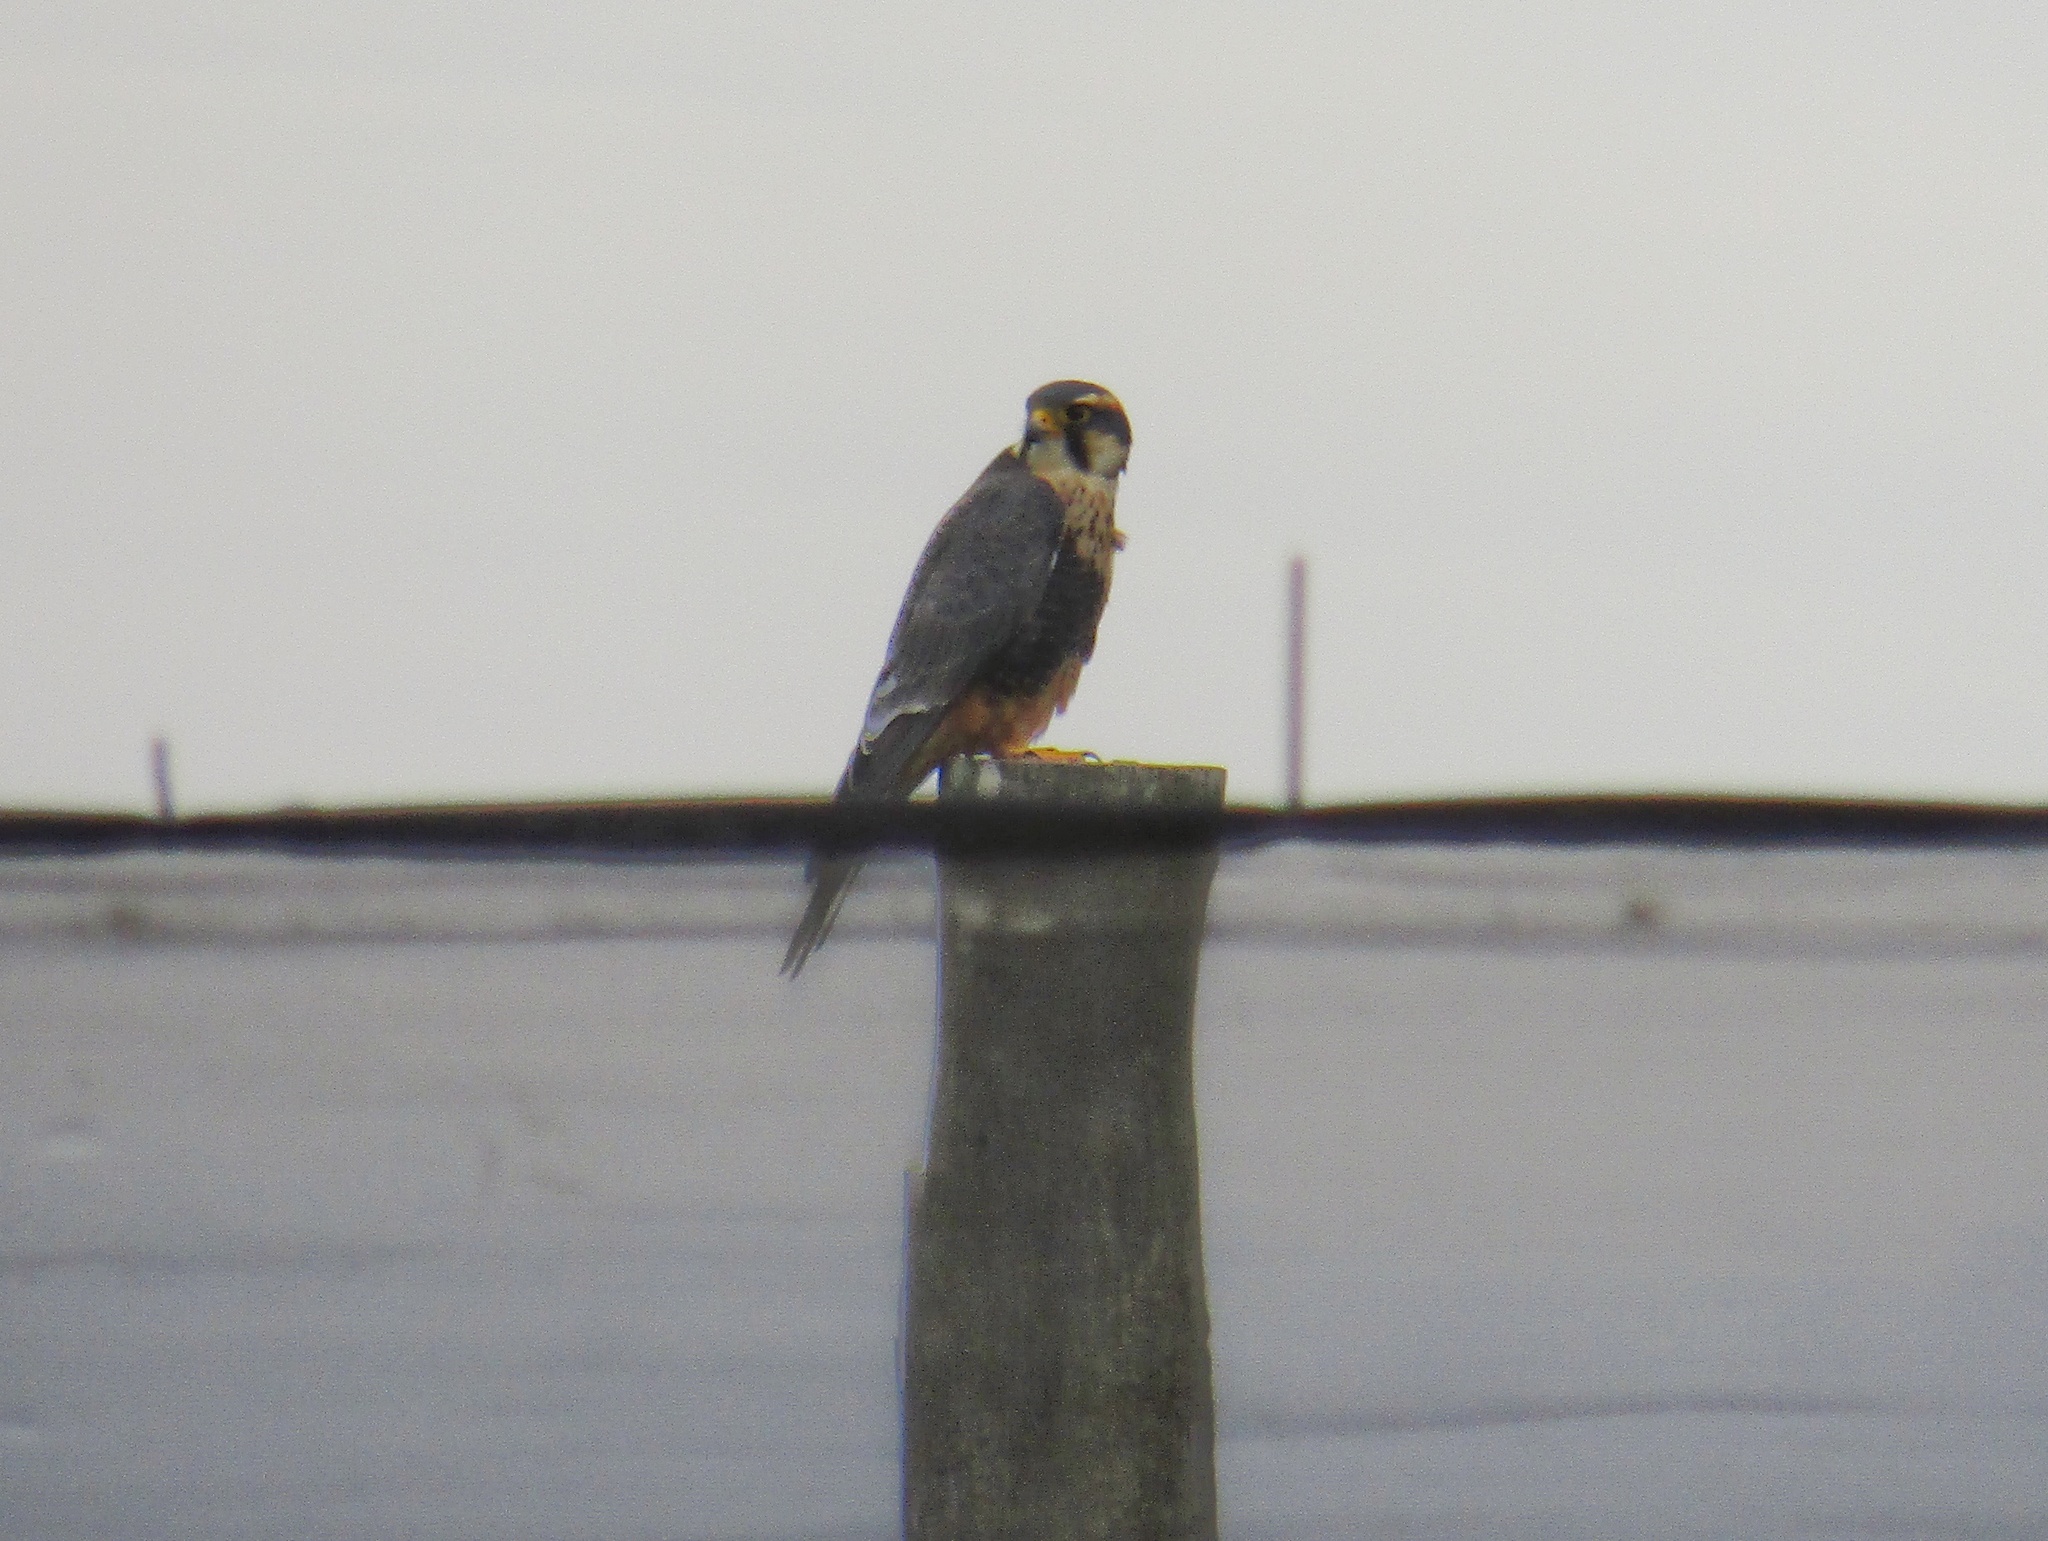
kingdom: Animalia
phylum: Chordata
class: Aves
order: Falconiformes
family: Falconidae
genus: Falco
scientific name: Falco femoralis
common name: Aplomado falcon
